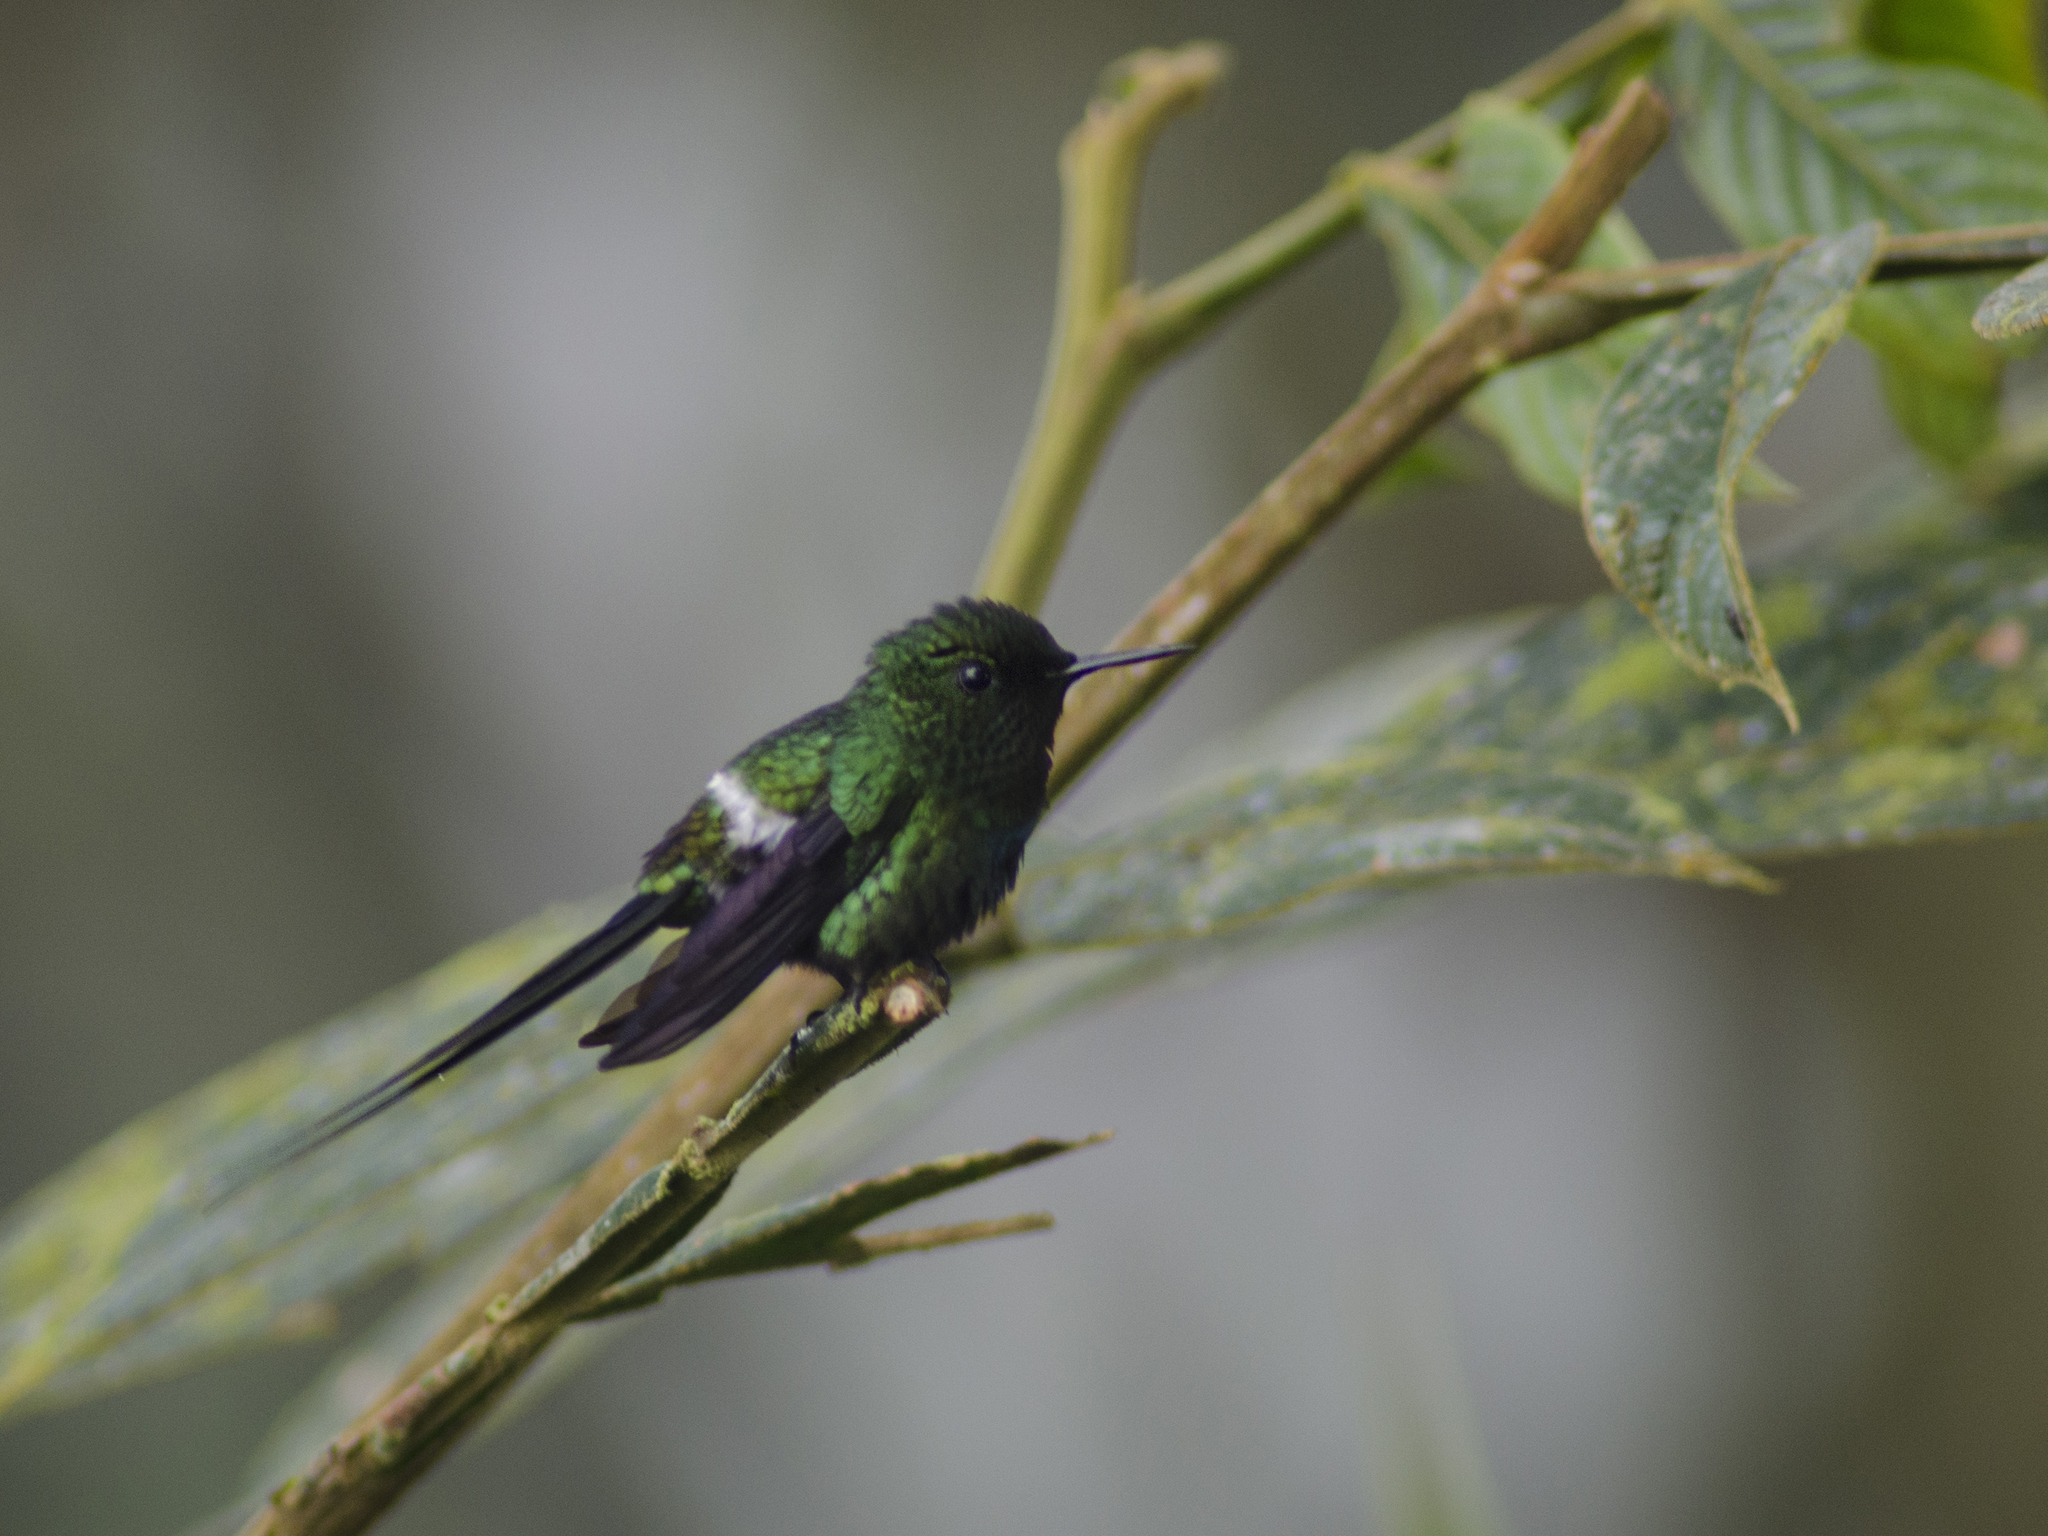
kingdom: Animalia
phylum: Chordata
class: Aves
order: Apodiformes
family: Trochilidae
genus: Discosura
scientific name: Discosura conversii
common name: Green thorntail
